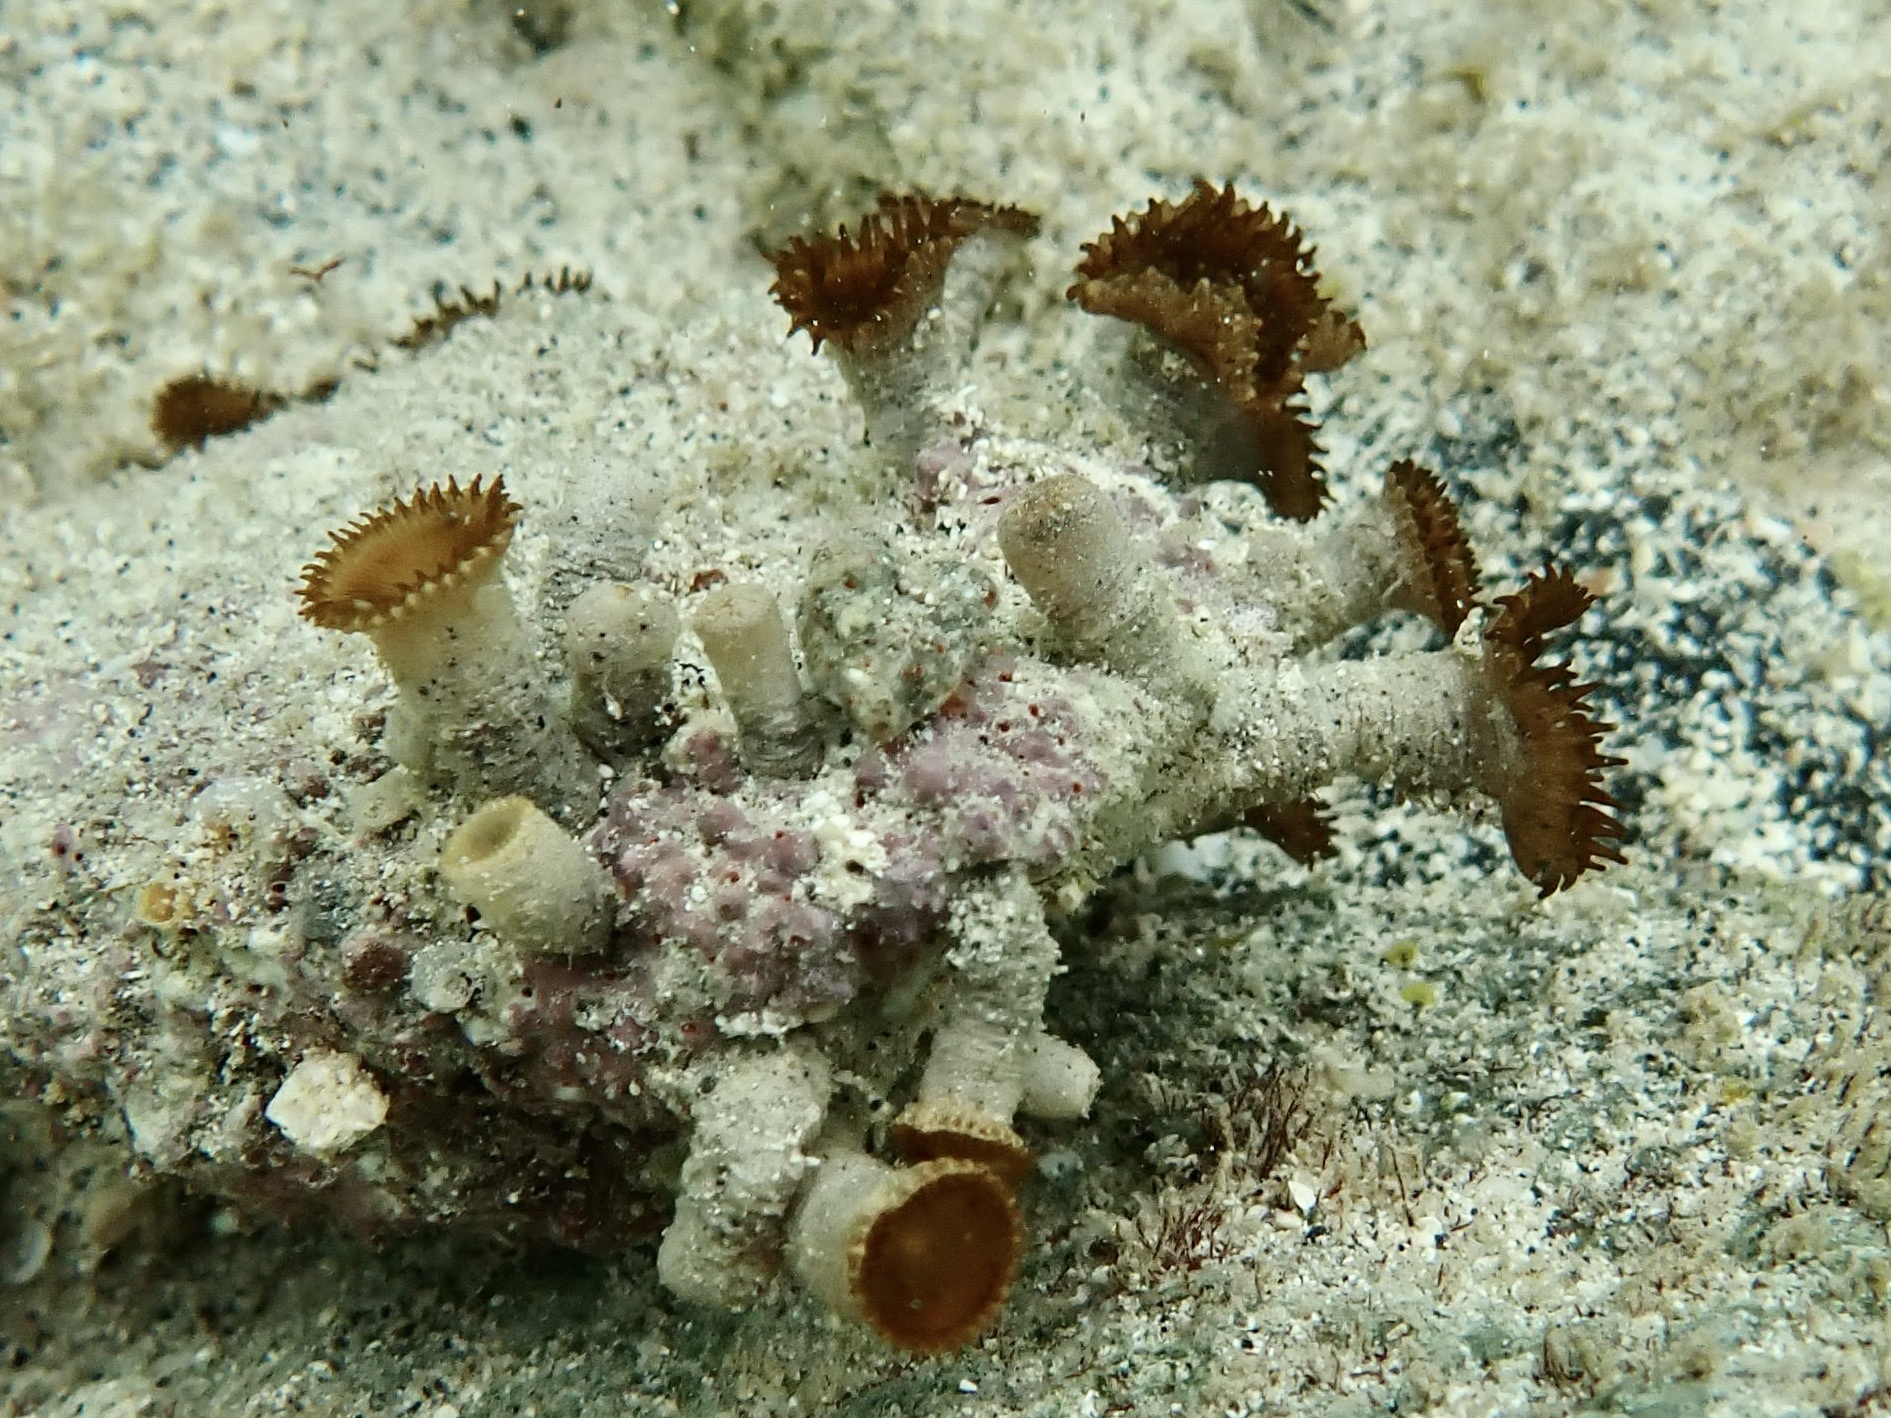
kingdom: Animalia
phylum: Cnidaria
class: Anthozoa
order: Zoantharia
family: Sphenopidae
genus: Palythoa
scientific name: Palythoa grandiflora
